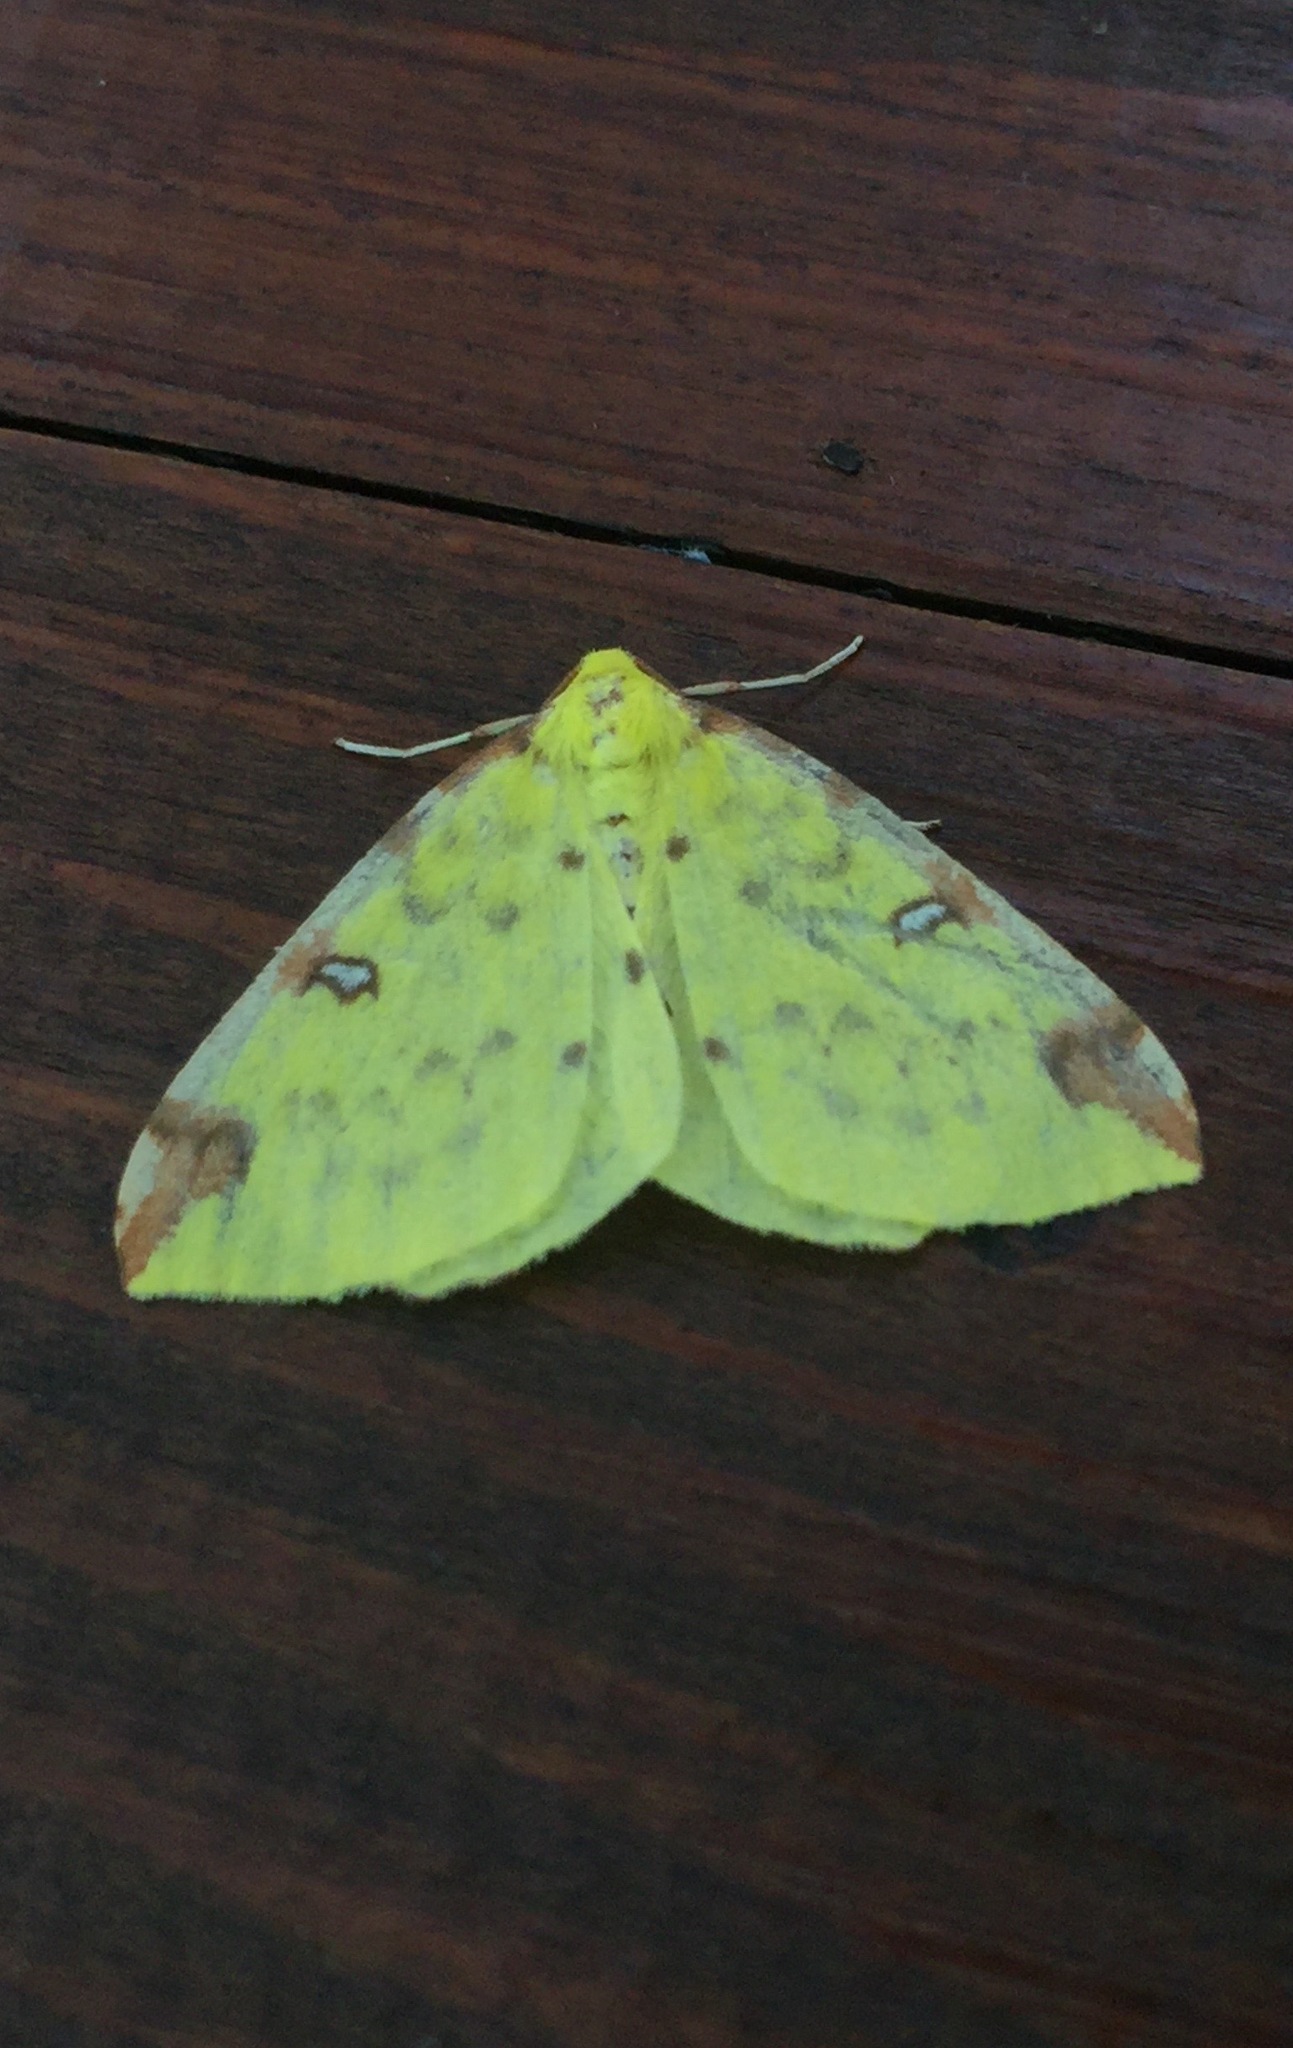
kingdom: Animalia
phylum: Arthropoda
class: Insecta
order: Lepidoptera
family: Geometridae
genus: Opisthograptis
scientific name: Opisthograptis luteolata
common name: Brimstone moth
